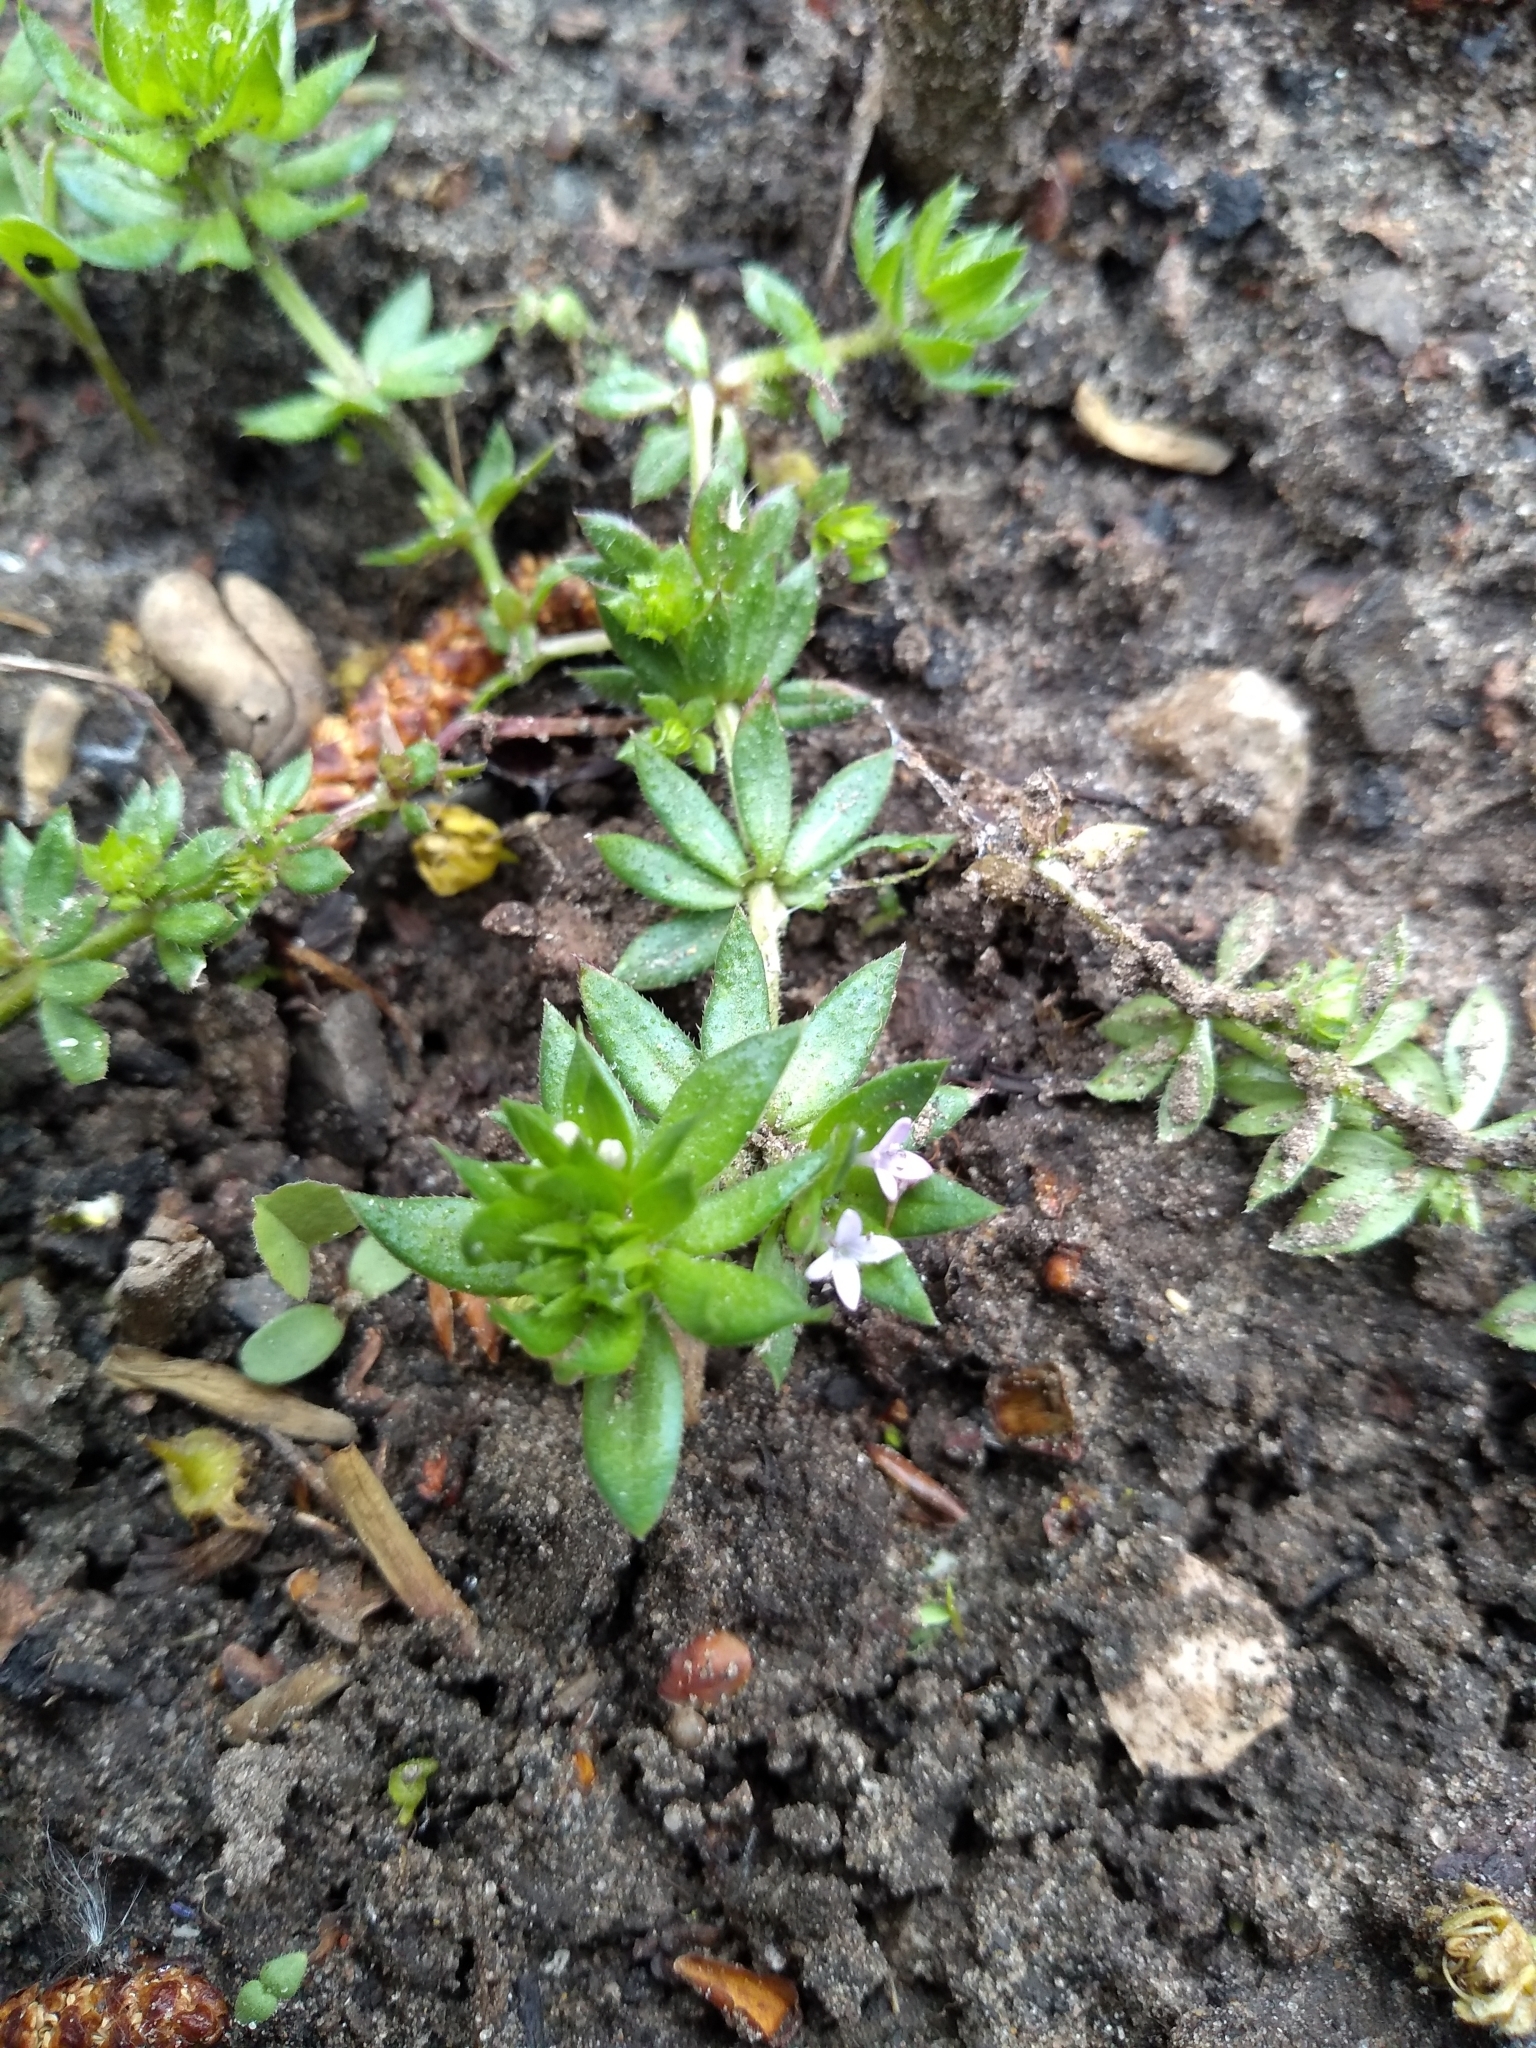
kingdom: Plantae
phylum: Tracheophyta
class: Magnoliopsida
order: Gentianales
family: Rubiaceae
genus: Sherardia
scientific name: Sherardia arvensis
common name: Field madder
